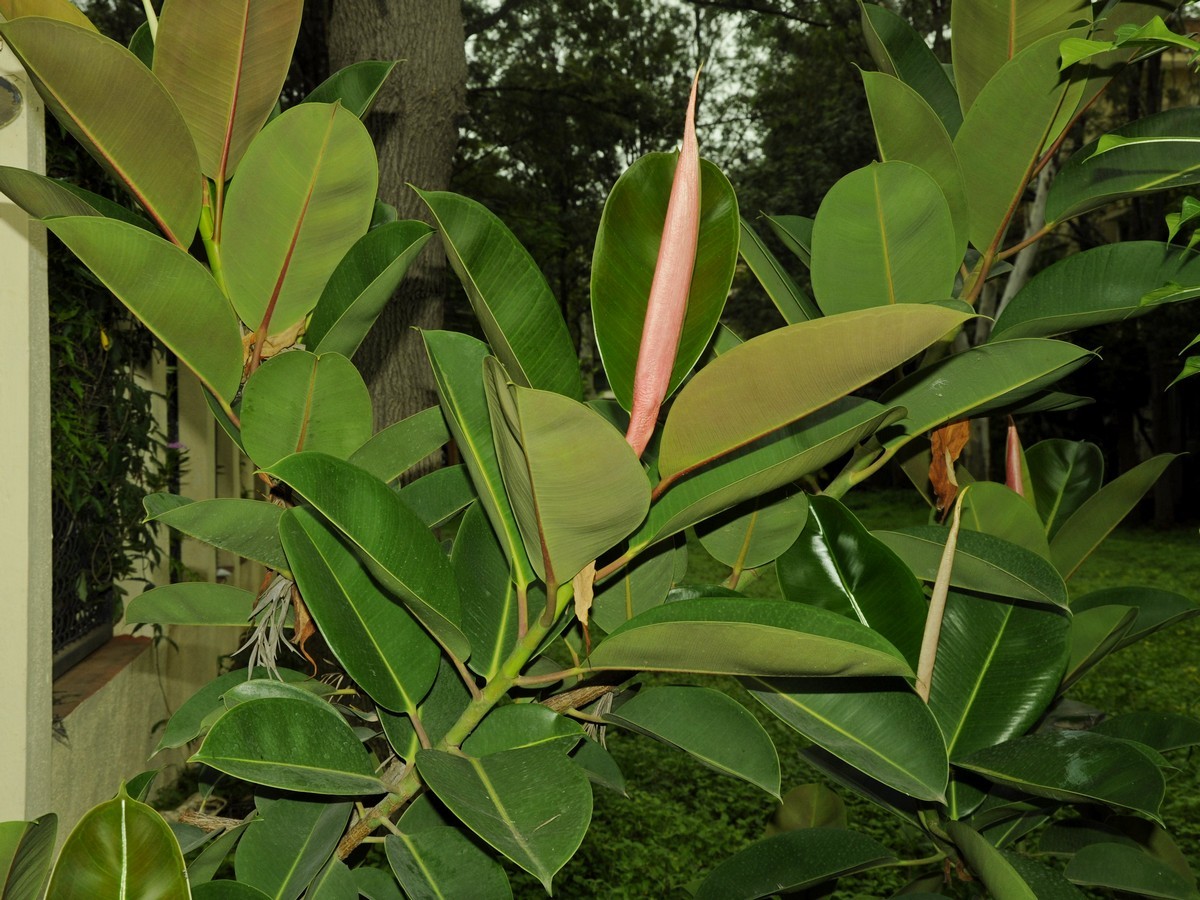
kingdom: Plantae
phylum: Tracheophyta
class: Magnoliopsida
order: Rosales
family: Moraceae
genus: Ficus
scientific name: Ficus elastica
